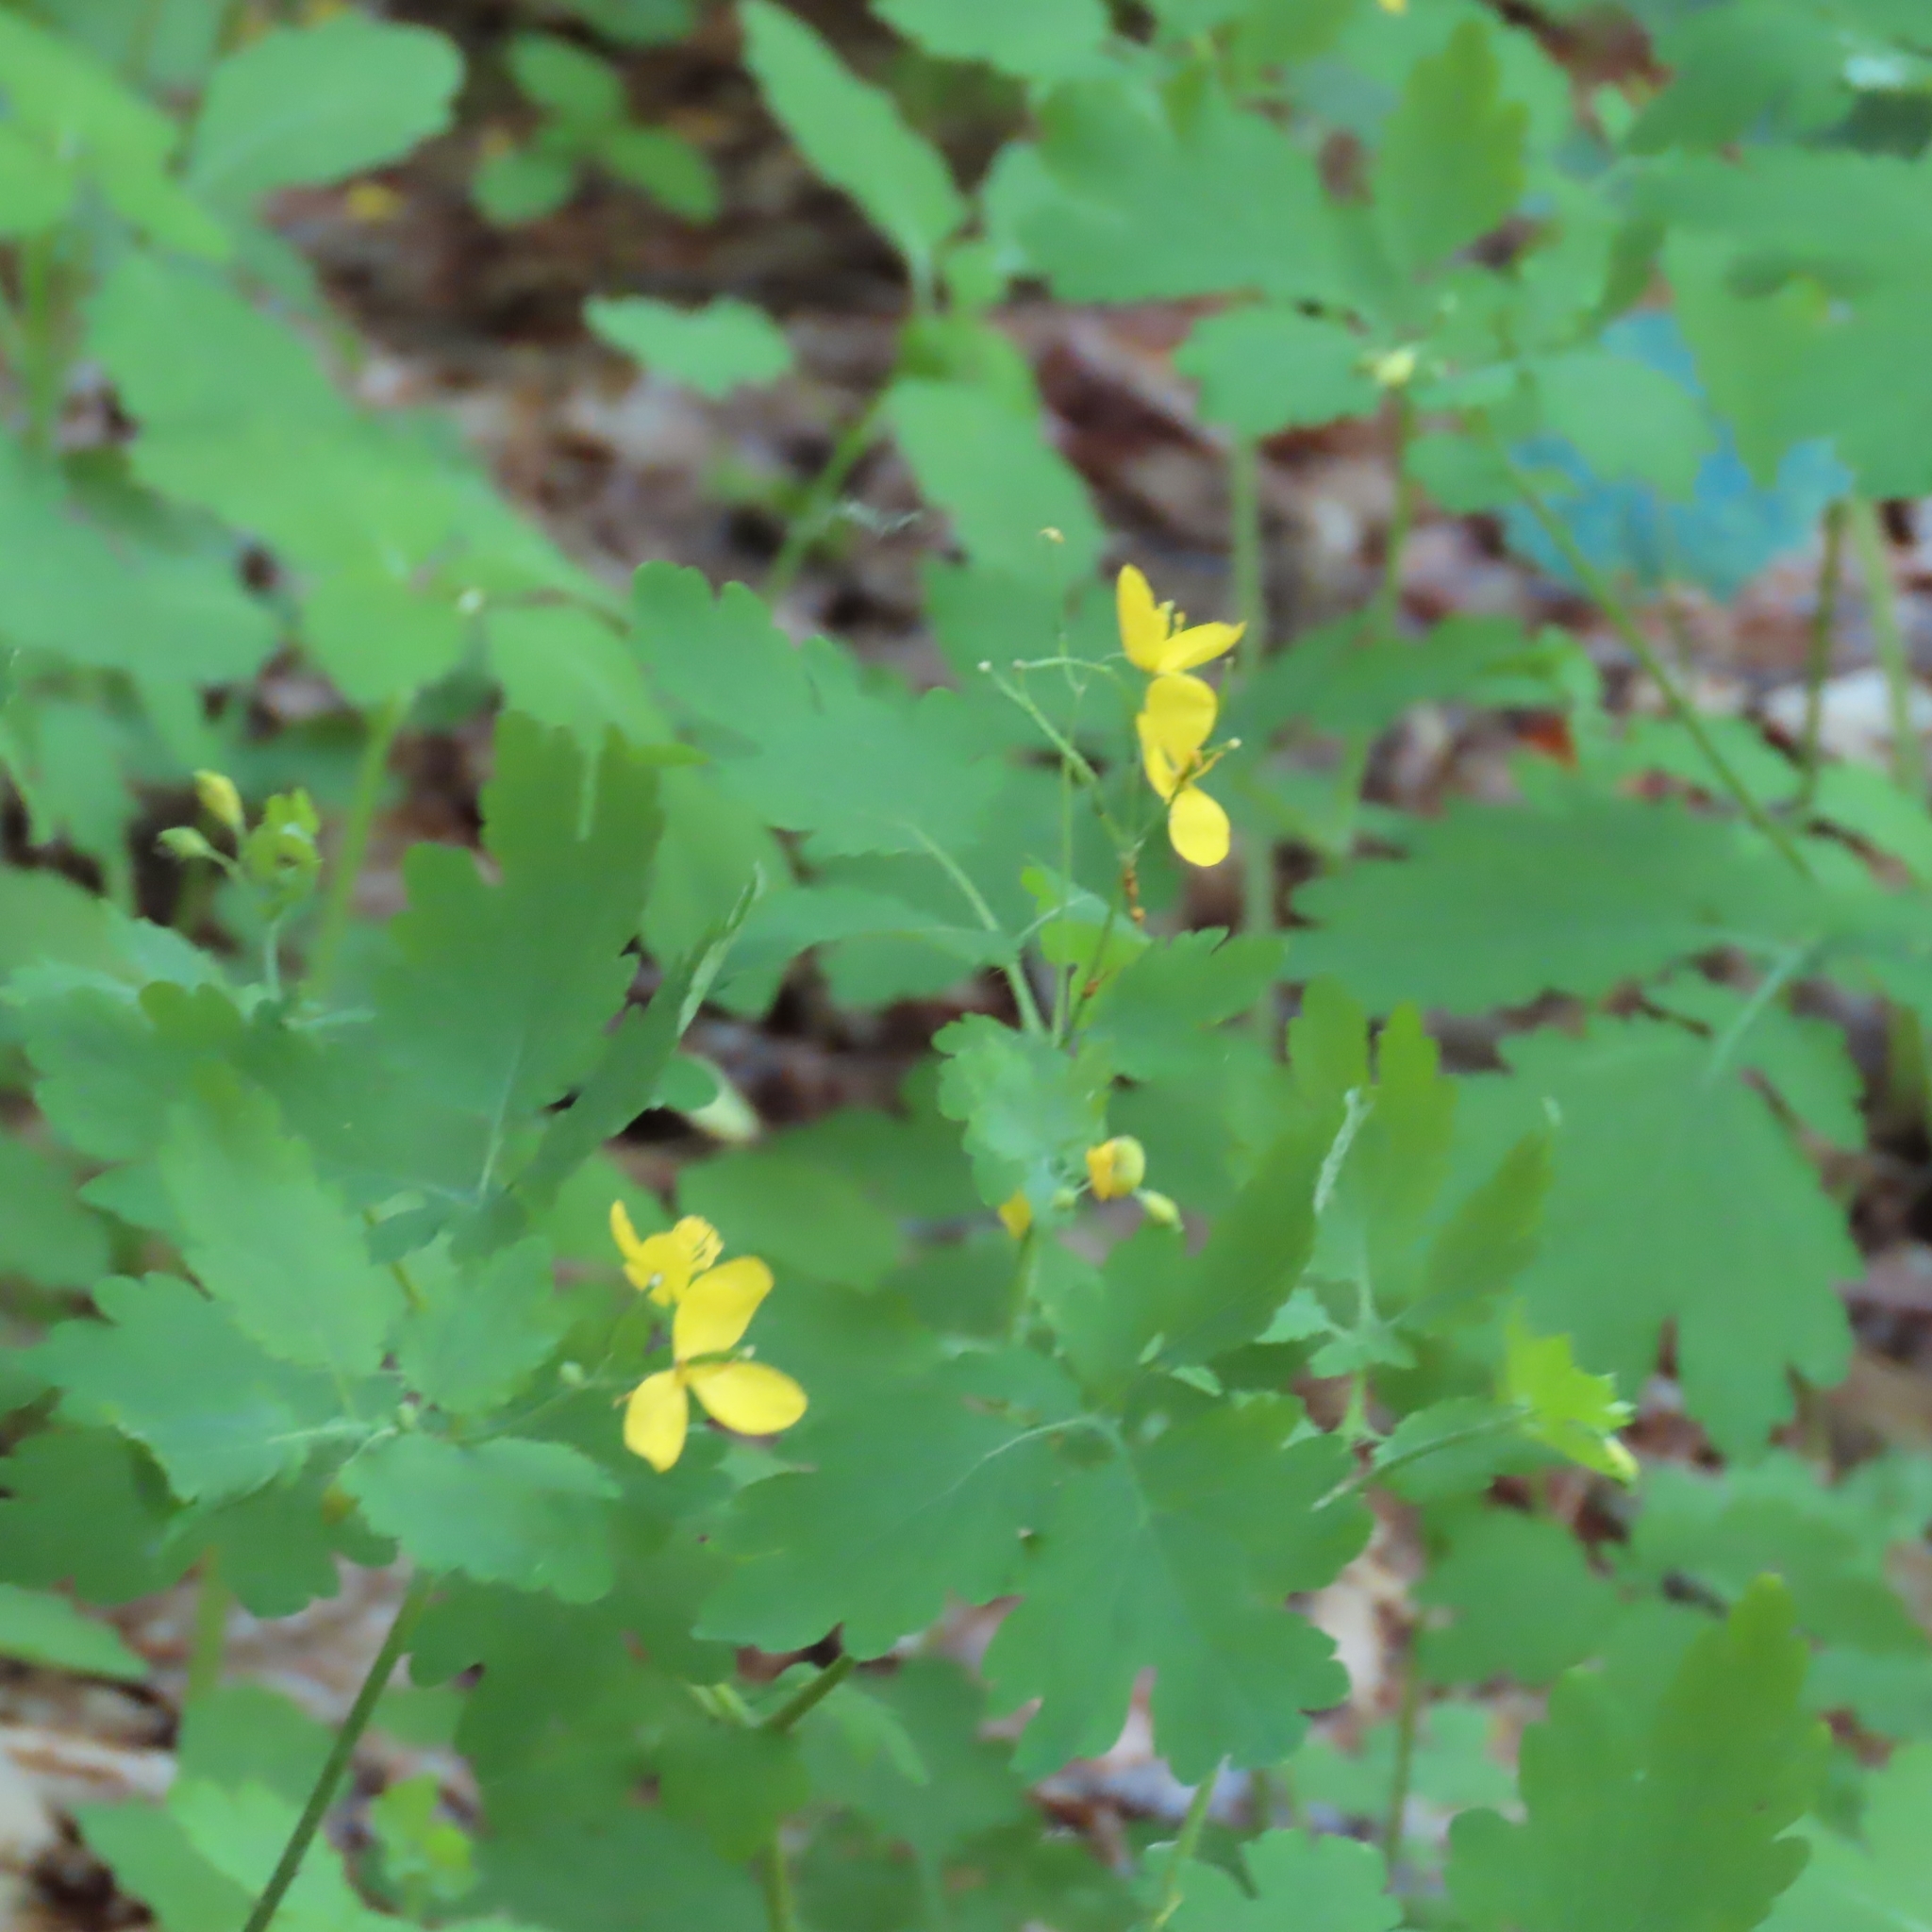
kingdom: Plantae
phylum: Tracheophyta
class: Magnoliopsida
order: Ranunculales
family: Papaveraceae
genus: Chelidonium
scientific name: Chelidonium majus
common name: Greater celandine
